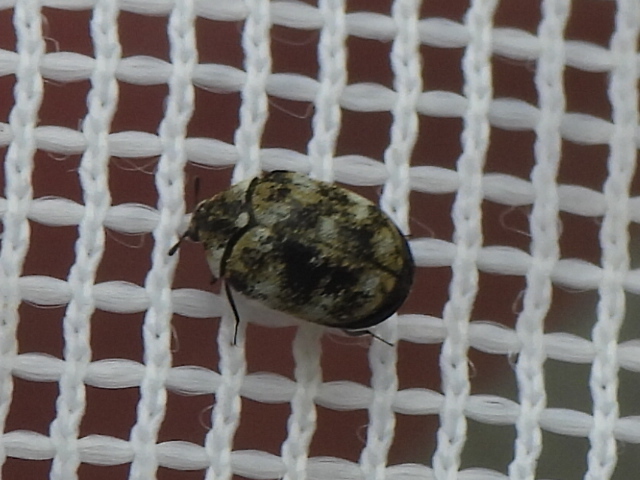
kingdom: Animalia
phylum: Arthropoda
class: Insecta
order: Coleoptera
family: Dermestidae
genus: Anthrenus
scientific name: Anthrenus verbasci
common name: Varied carpet beetle
